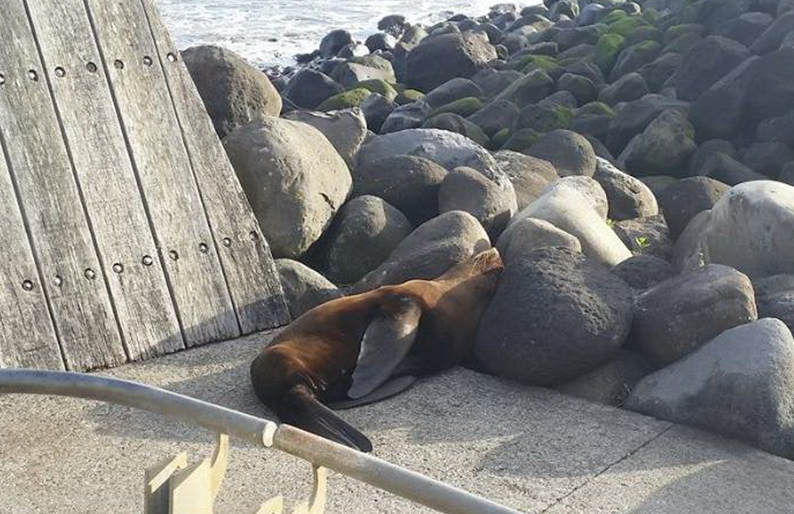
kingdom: Animalia
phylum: Chordata
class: Mammalia
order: Carnivora
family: Otariidae
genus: Arctocephalus
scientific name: Arctocephalus forsteri
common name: New zealand fur seal
